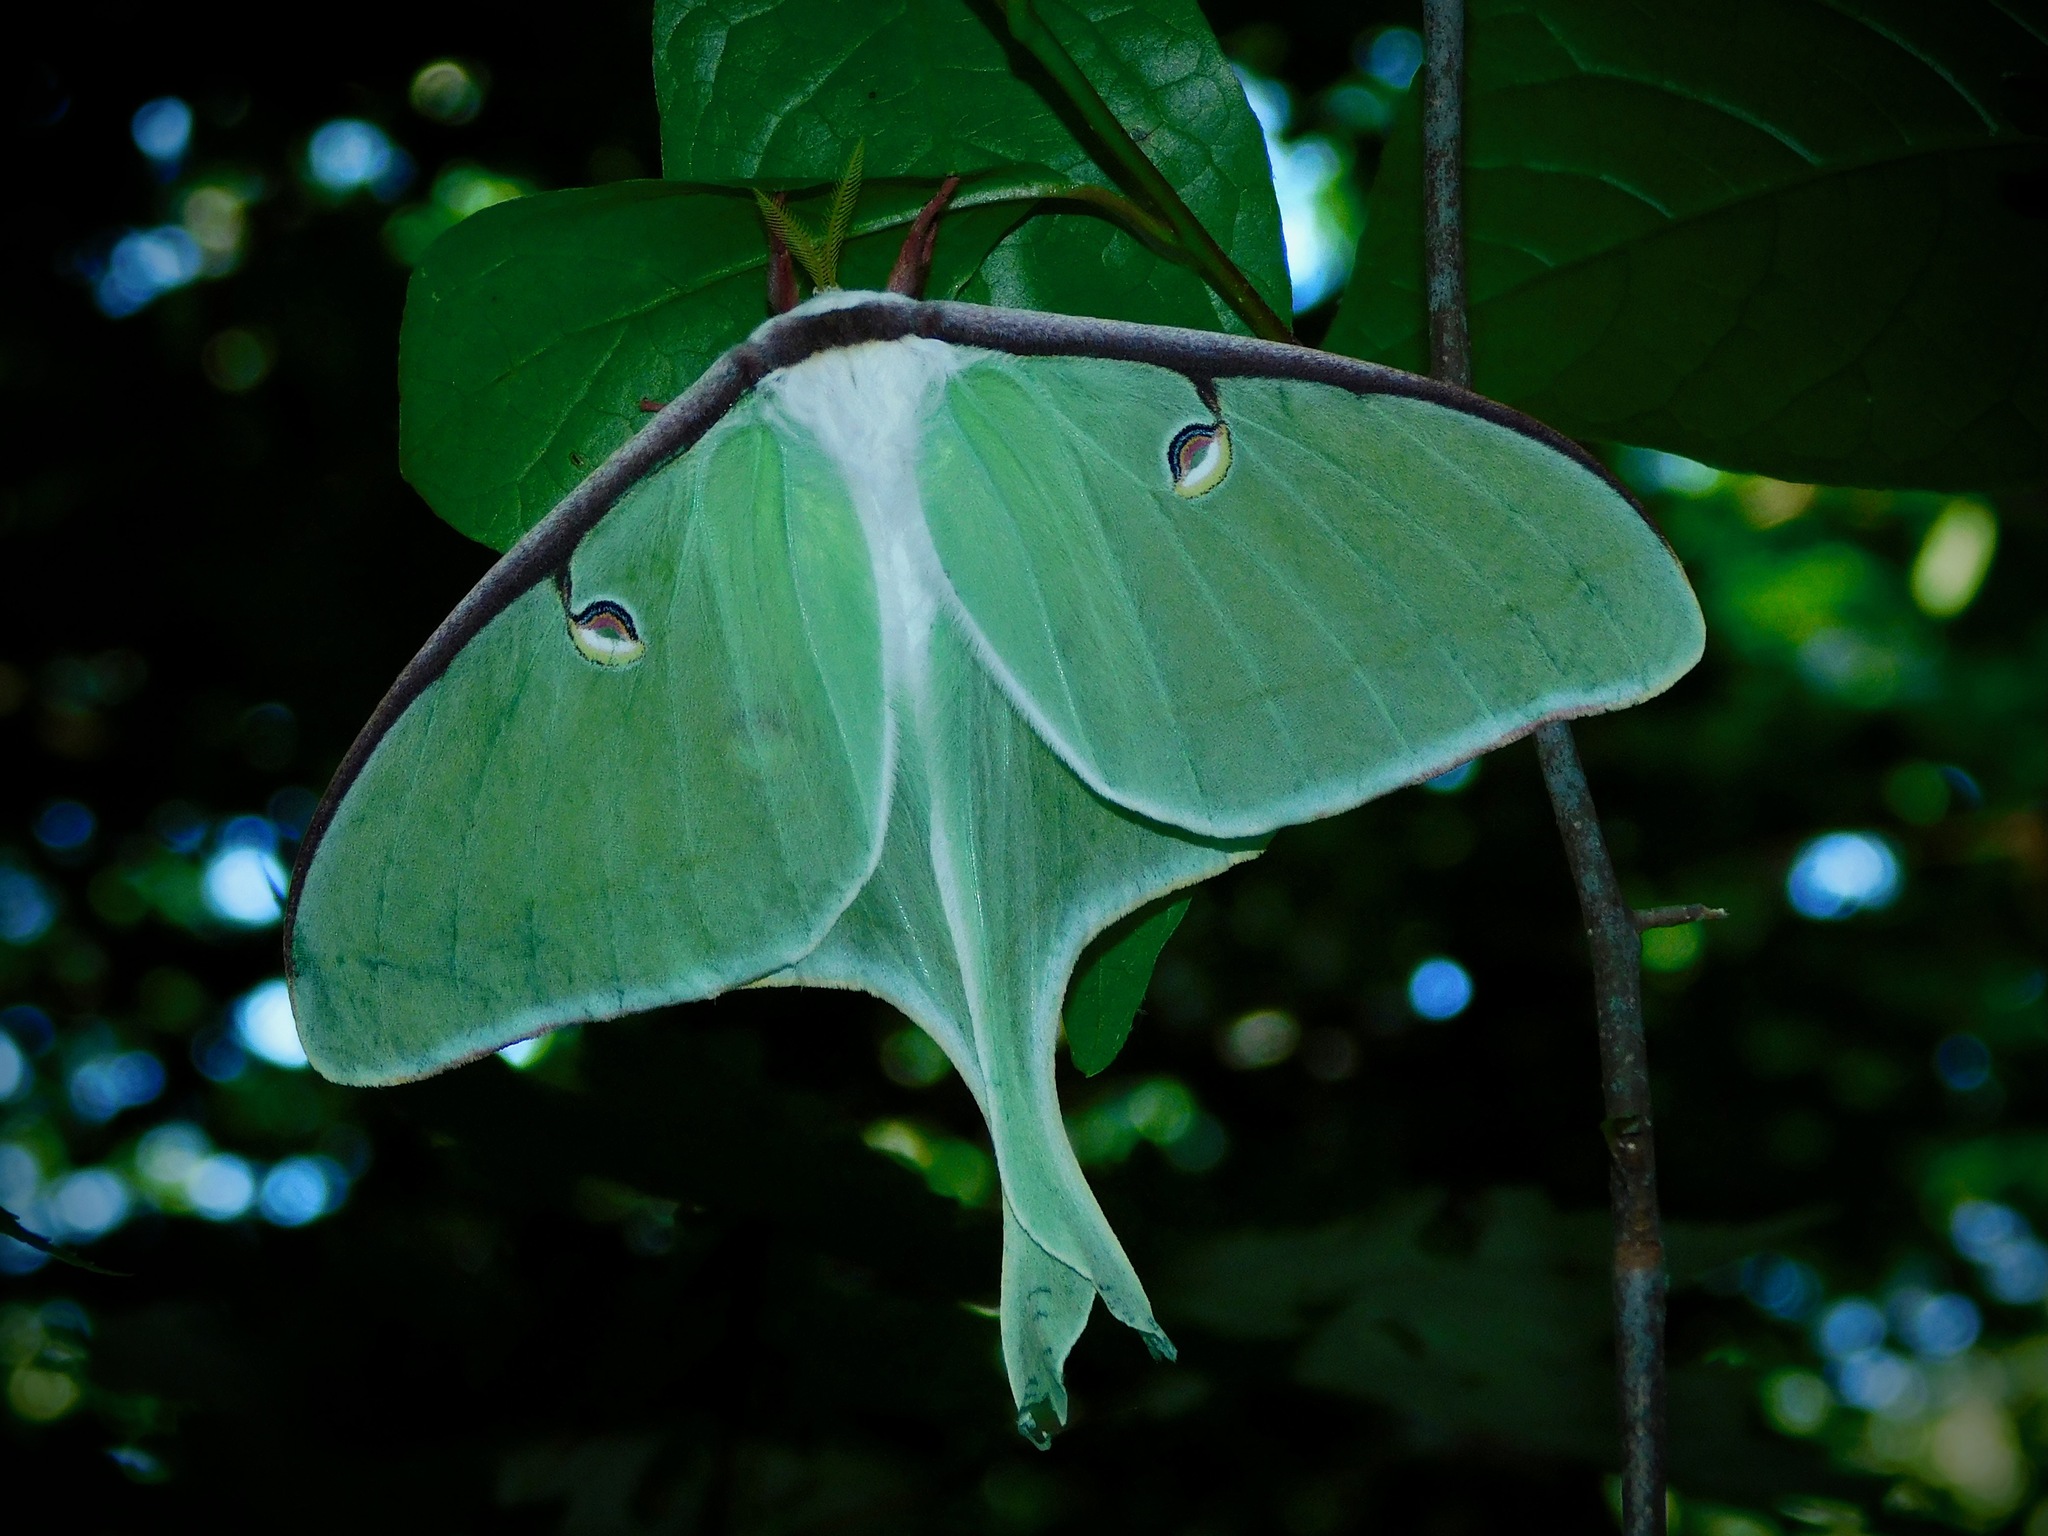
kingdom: Animalia
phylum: Arthropoda
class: Insecta
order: Lepidoptera
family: Saturniidae
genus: Actias
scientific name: Actias luna
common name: Luna moth
